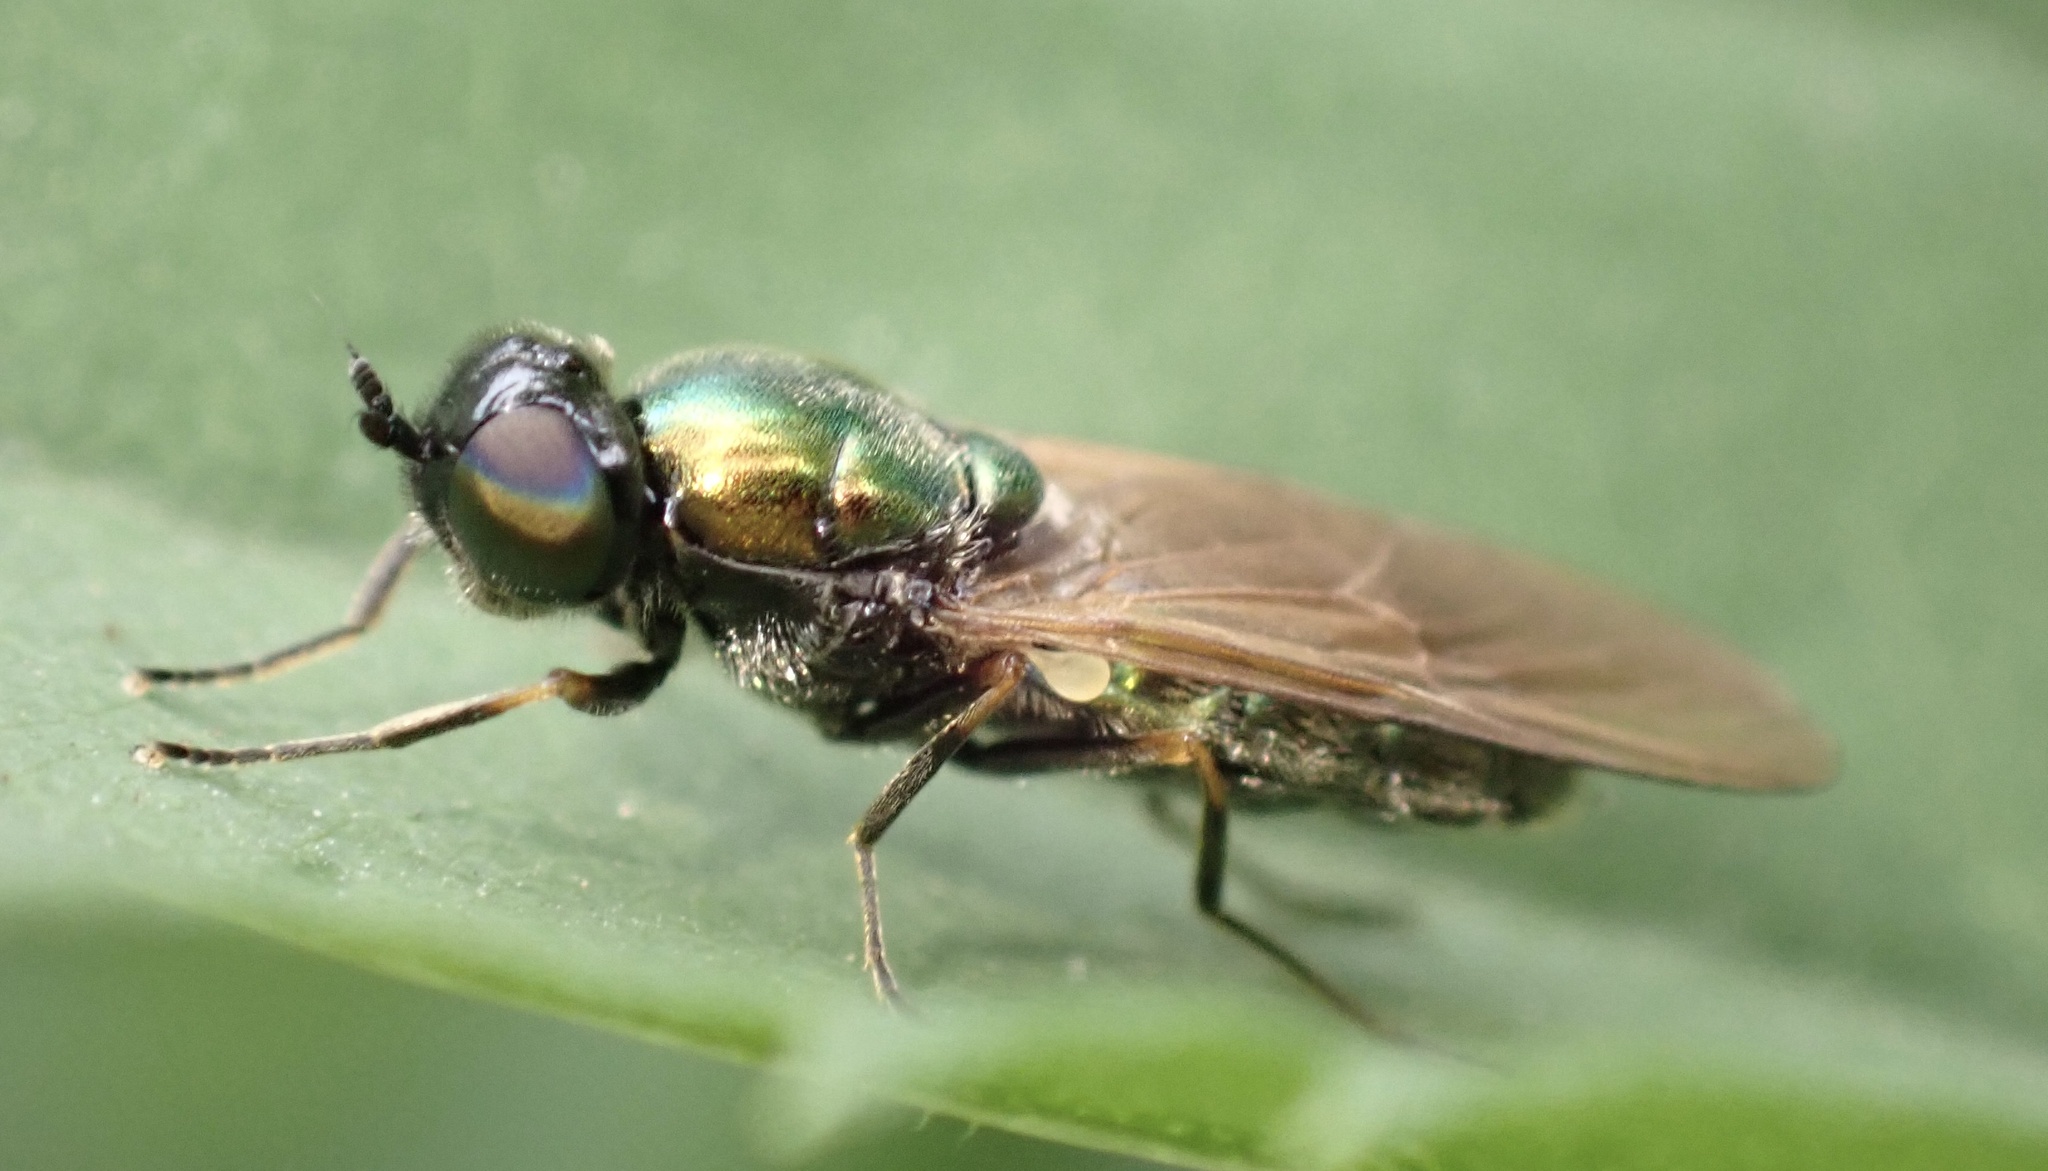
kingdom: Animalia
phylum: Arthropoda
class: Insecta
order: Diptera
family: Stratiomyidae
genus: Chloromyia
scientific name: Chloromyia formosa
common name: Soldier fly
